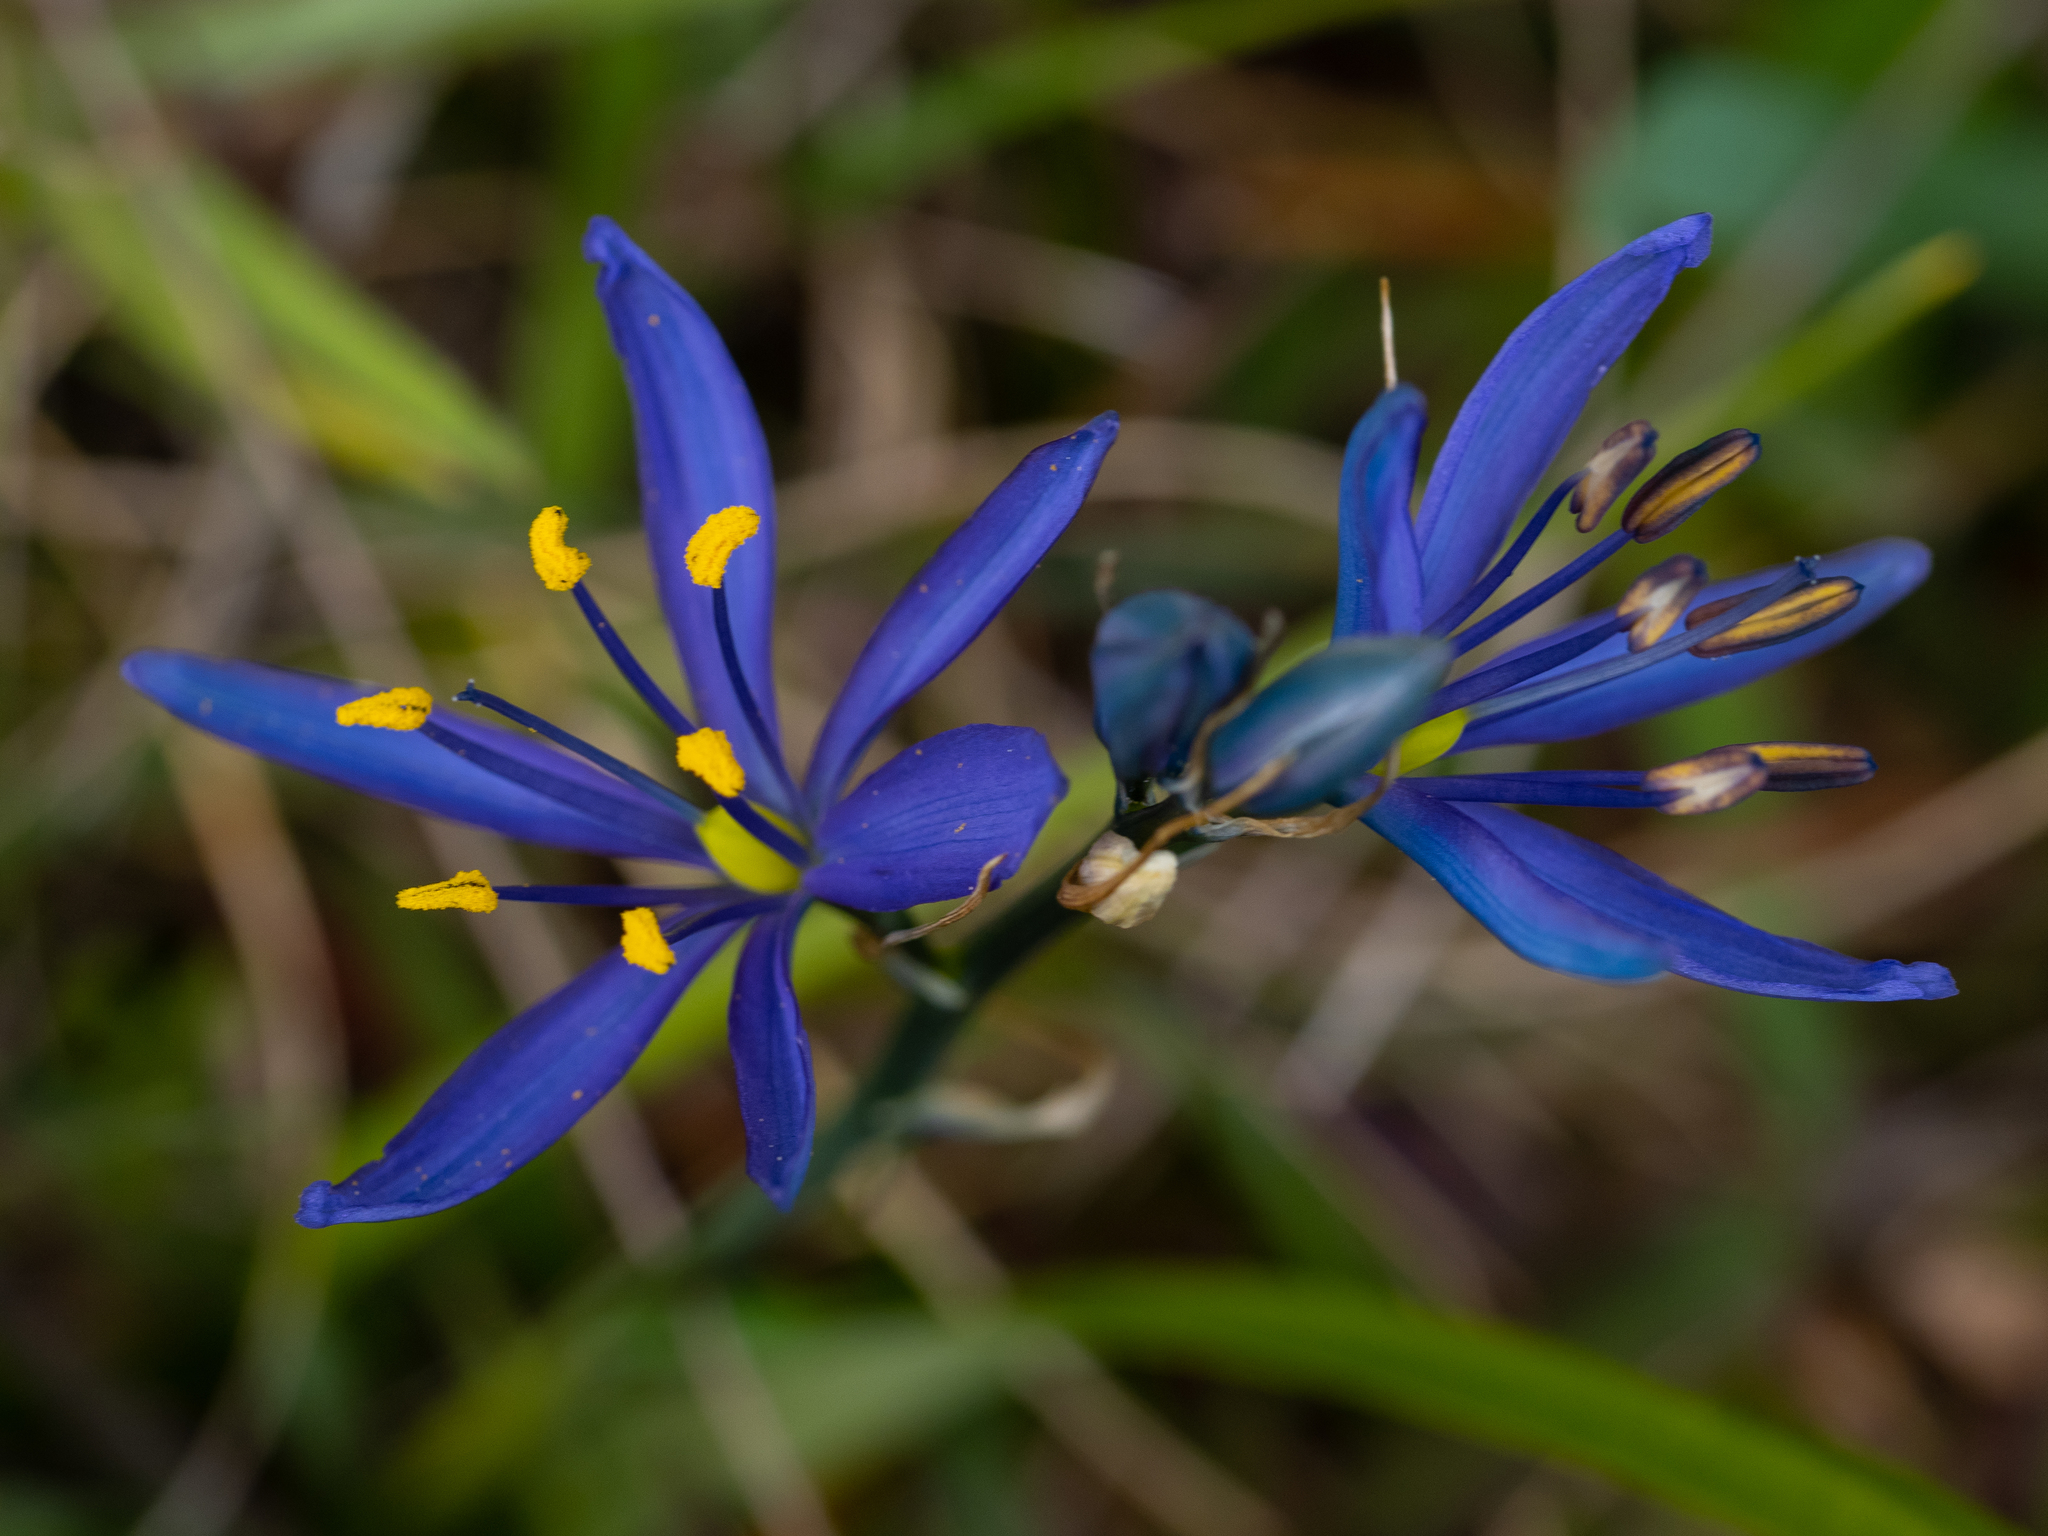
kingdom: Plantae
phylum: Tracheophyta
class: Liliopsida
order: Asparagales
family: Asparagaceae
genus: Camassia
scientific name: Camassia quamash
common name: Common camas
